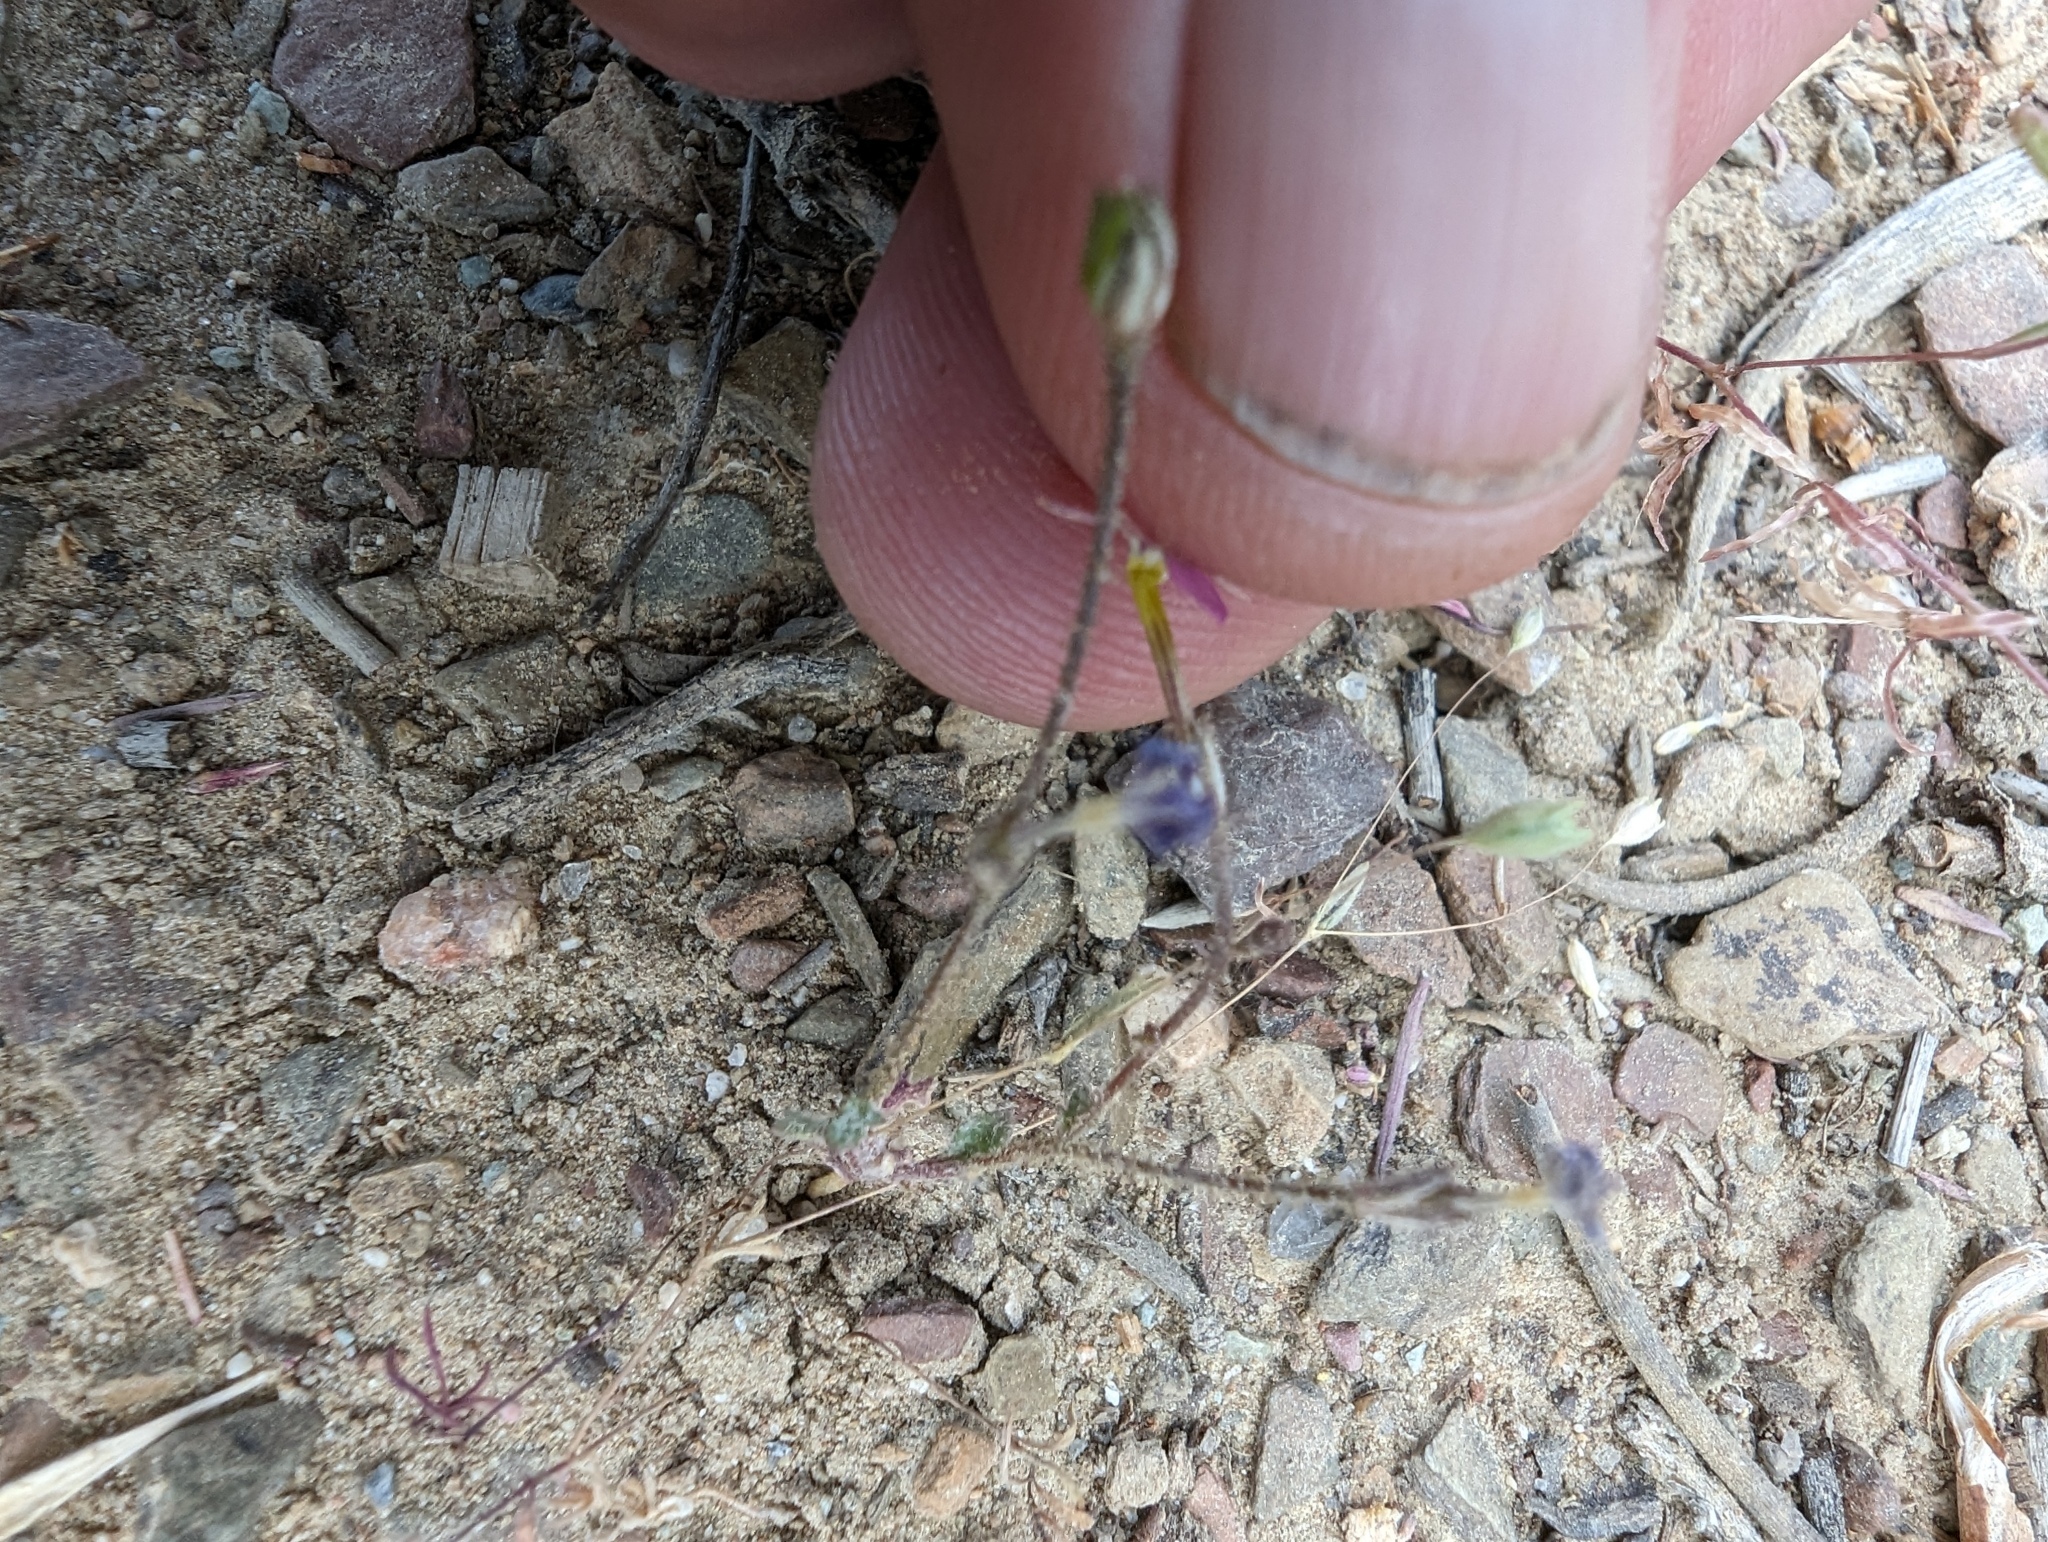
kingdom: Plantae
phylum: Tracheophyta
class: Magnoliopsida
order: Ericales
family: Polemoniaceae
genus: Gilia
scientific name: Gilia ophthalmoides
